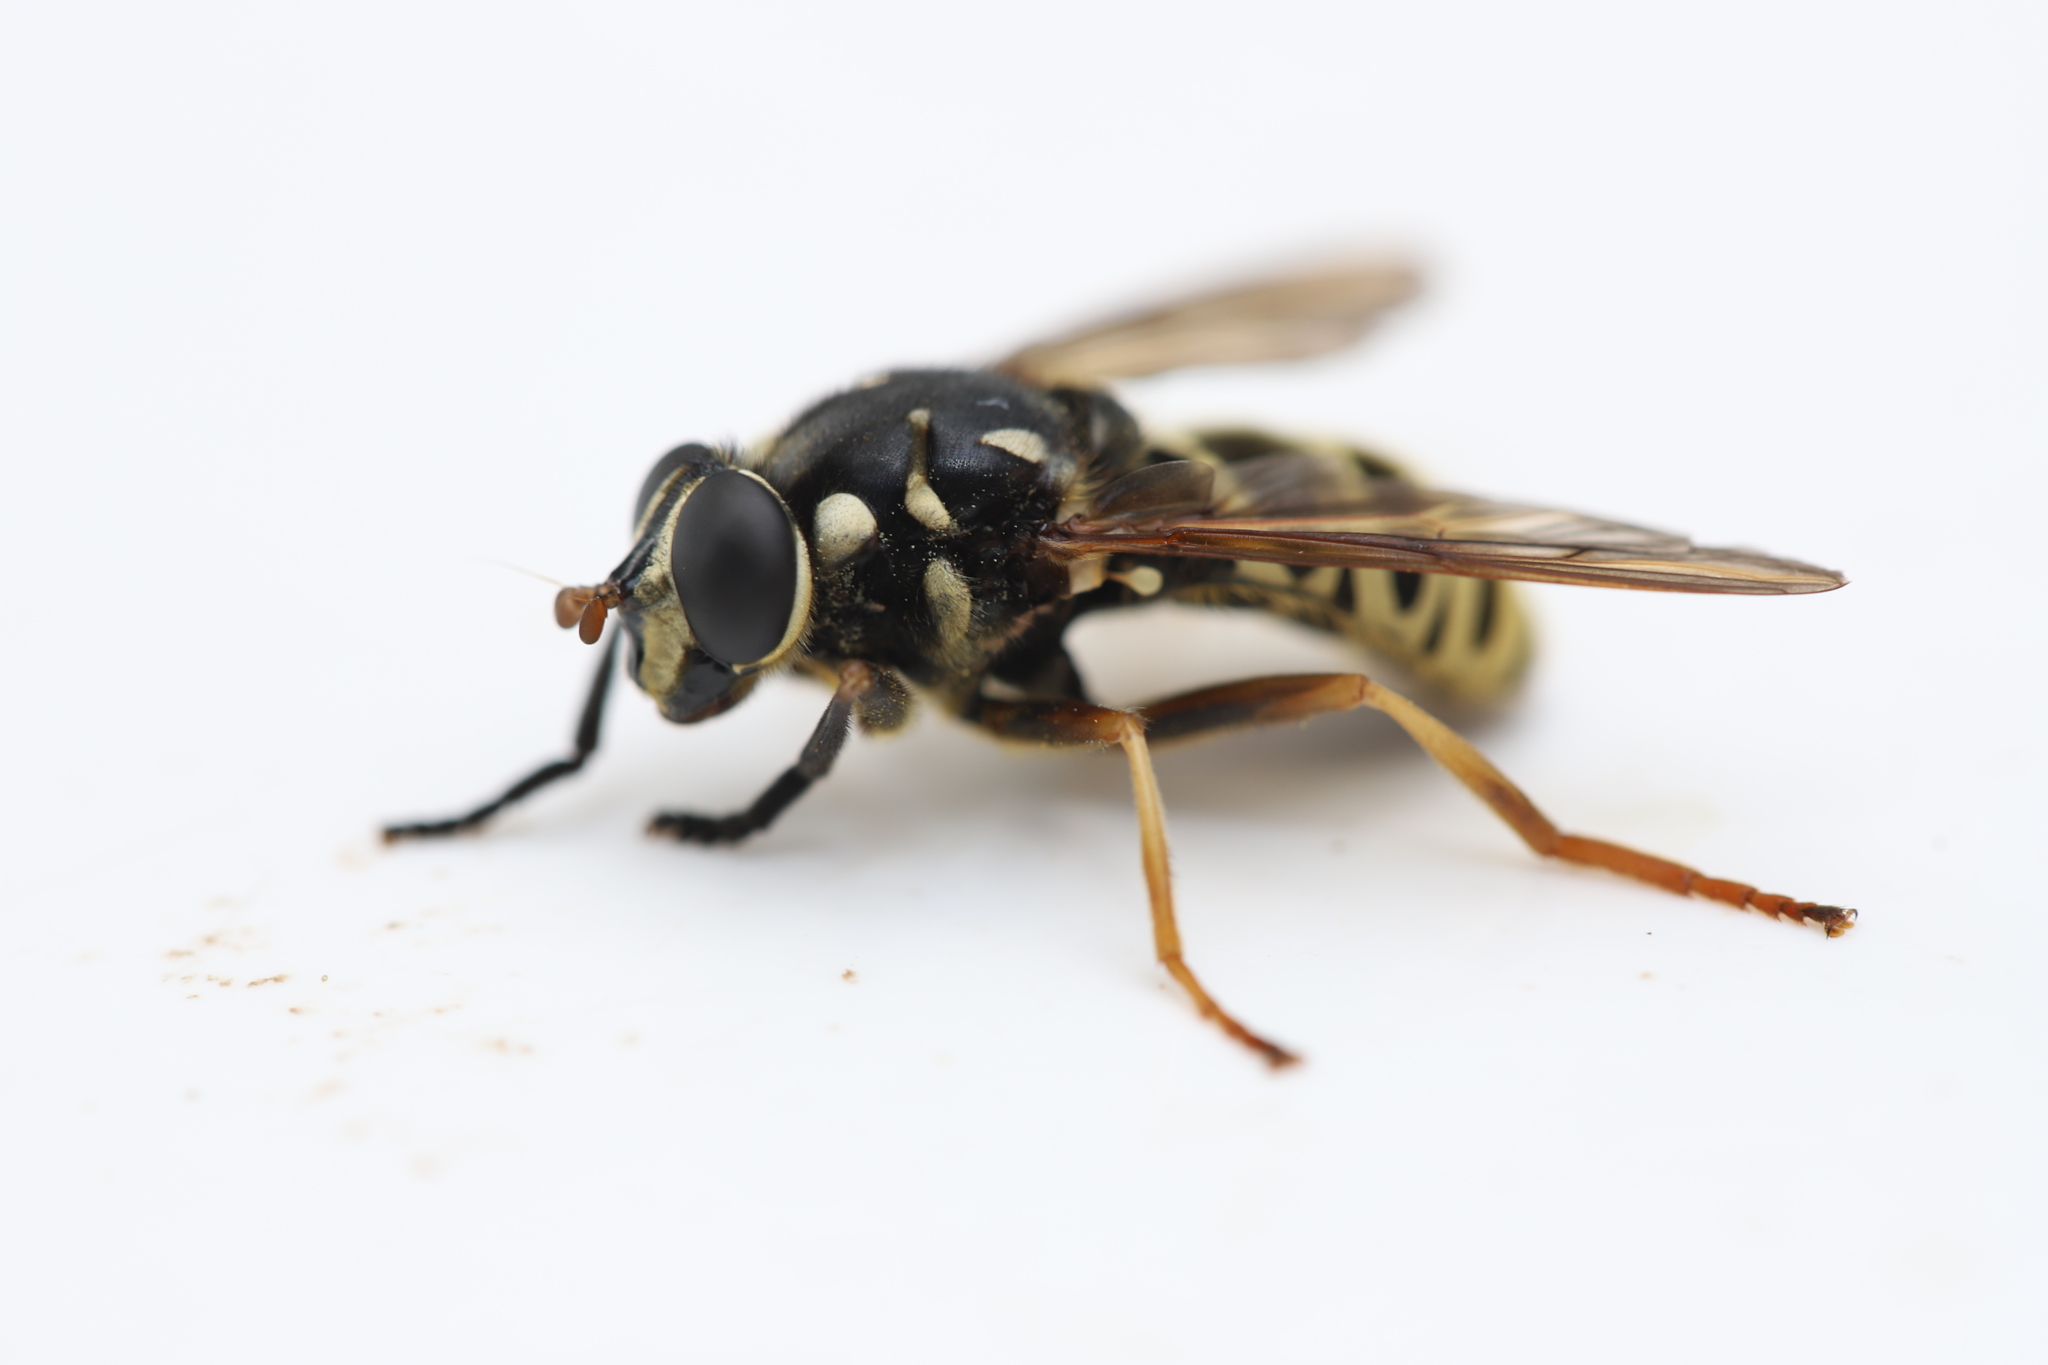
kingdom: Animalia
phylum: Arthropoda
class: Insecta
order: Diptera
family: Syrphidae
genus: Temnostoma
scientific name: Temnostoma excentricum
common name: Black-spotted falsehorn
